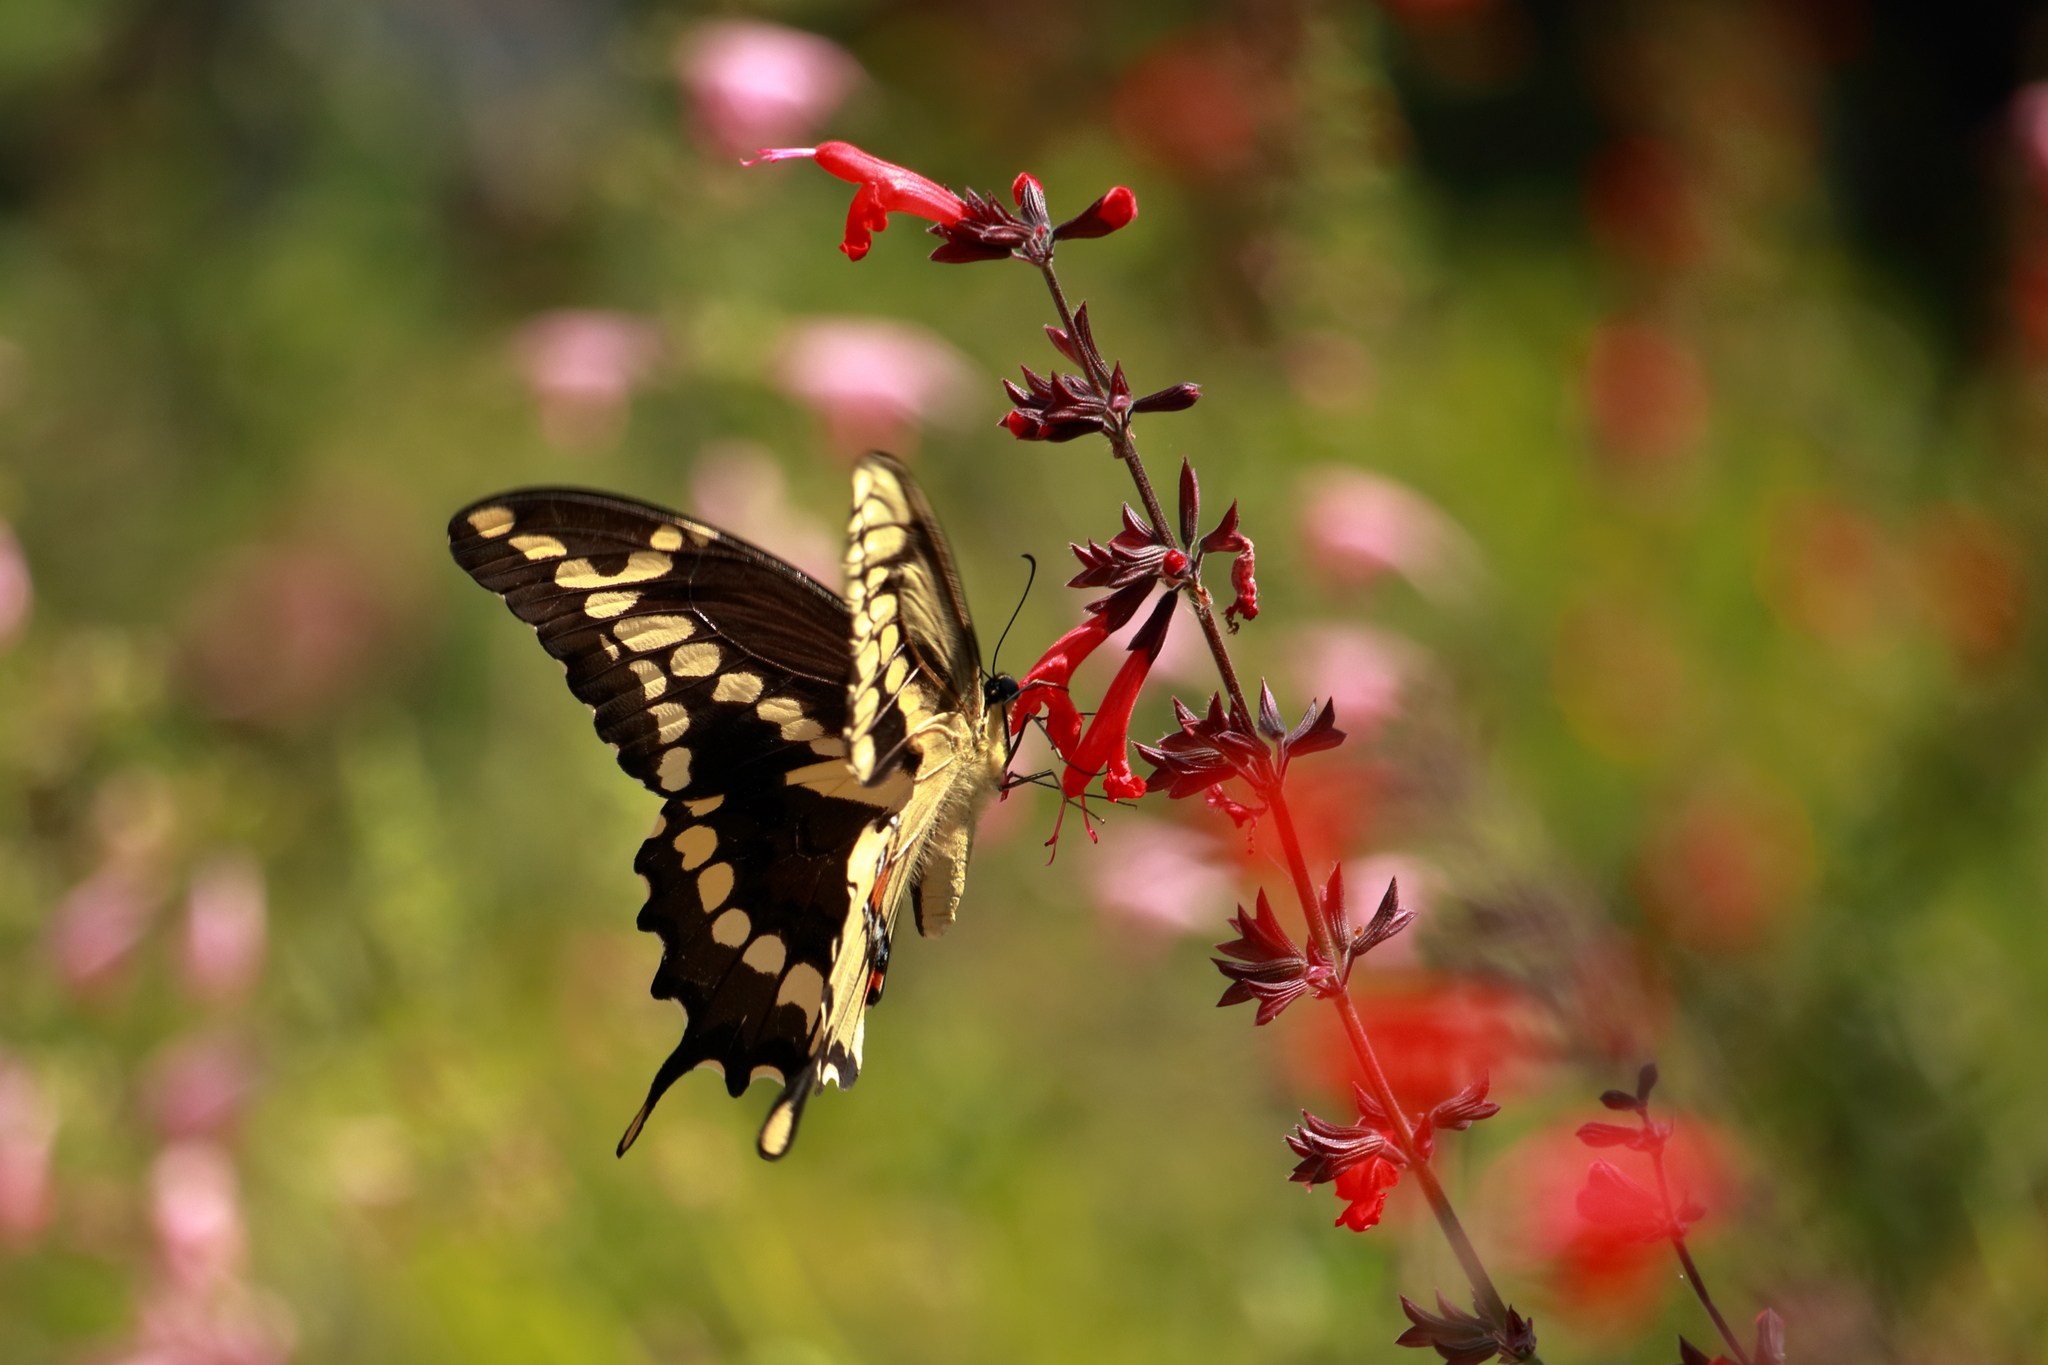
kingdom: Animalia
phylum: Arthropoda
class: Insecta
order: Lepidoptera
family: Papilionidae
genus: Papilio
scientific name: Papilio cresphontes
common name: Giant swallowtail
